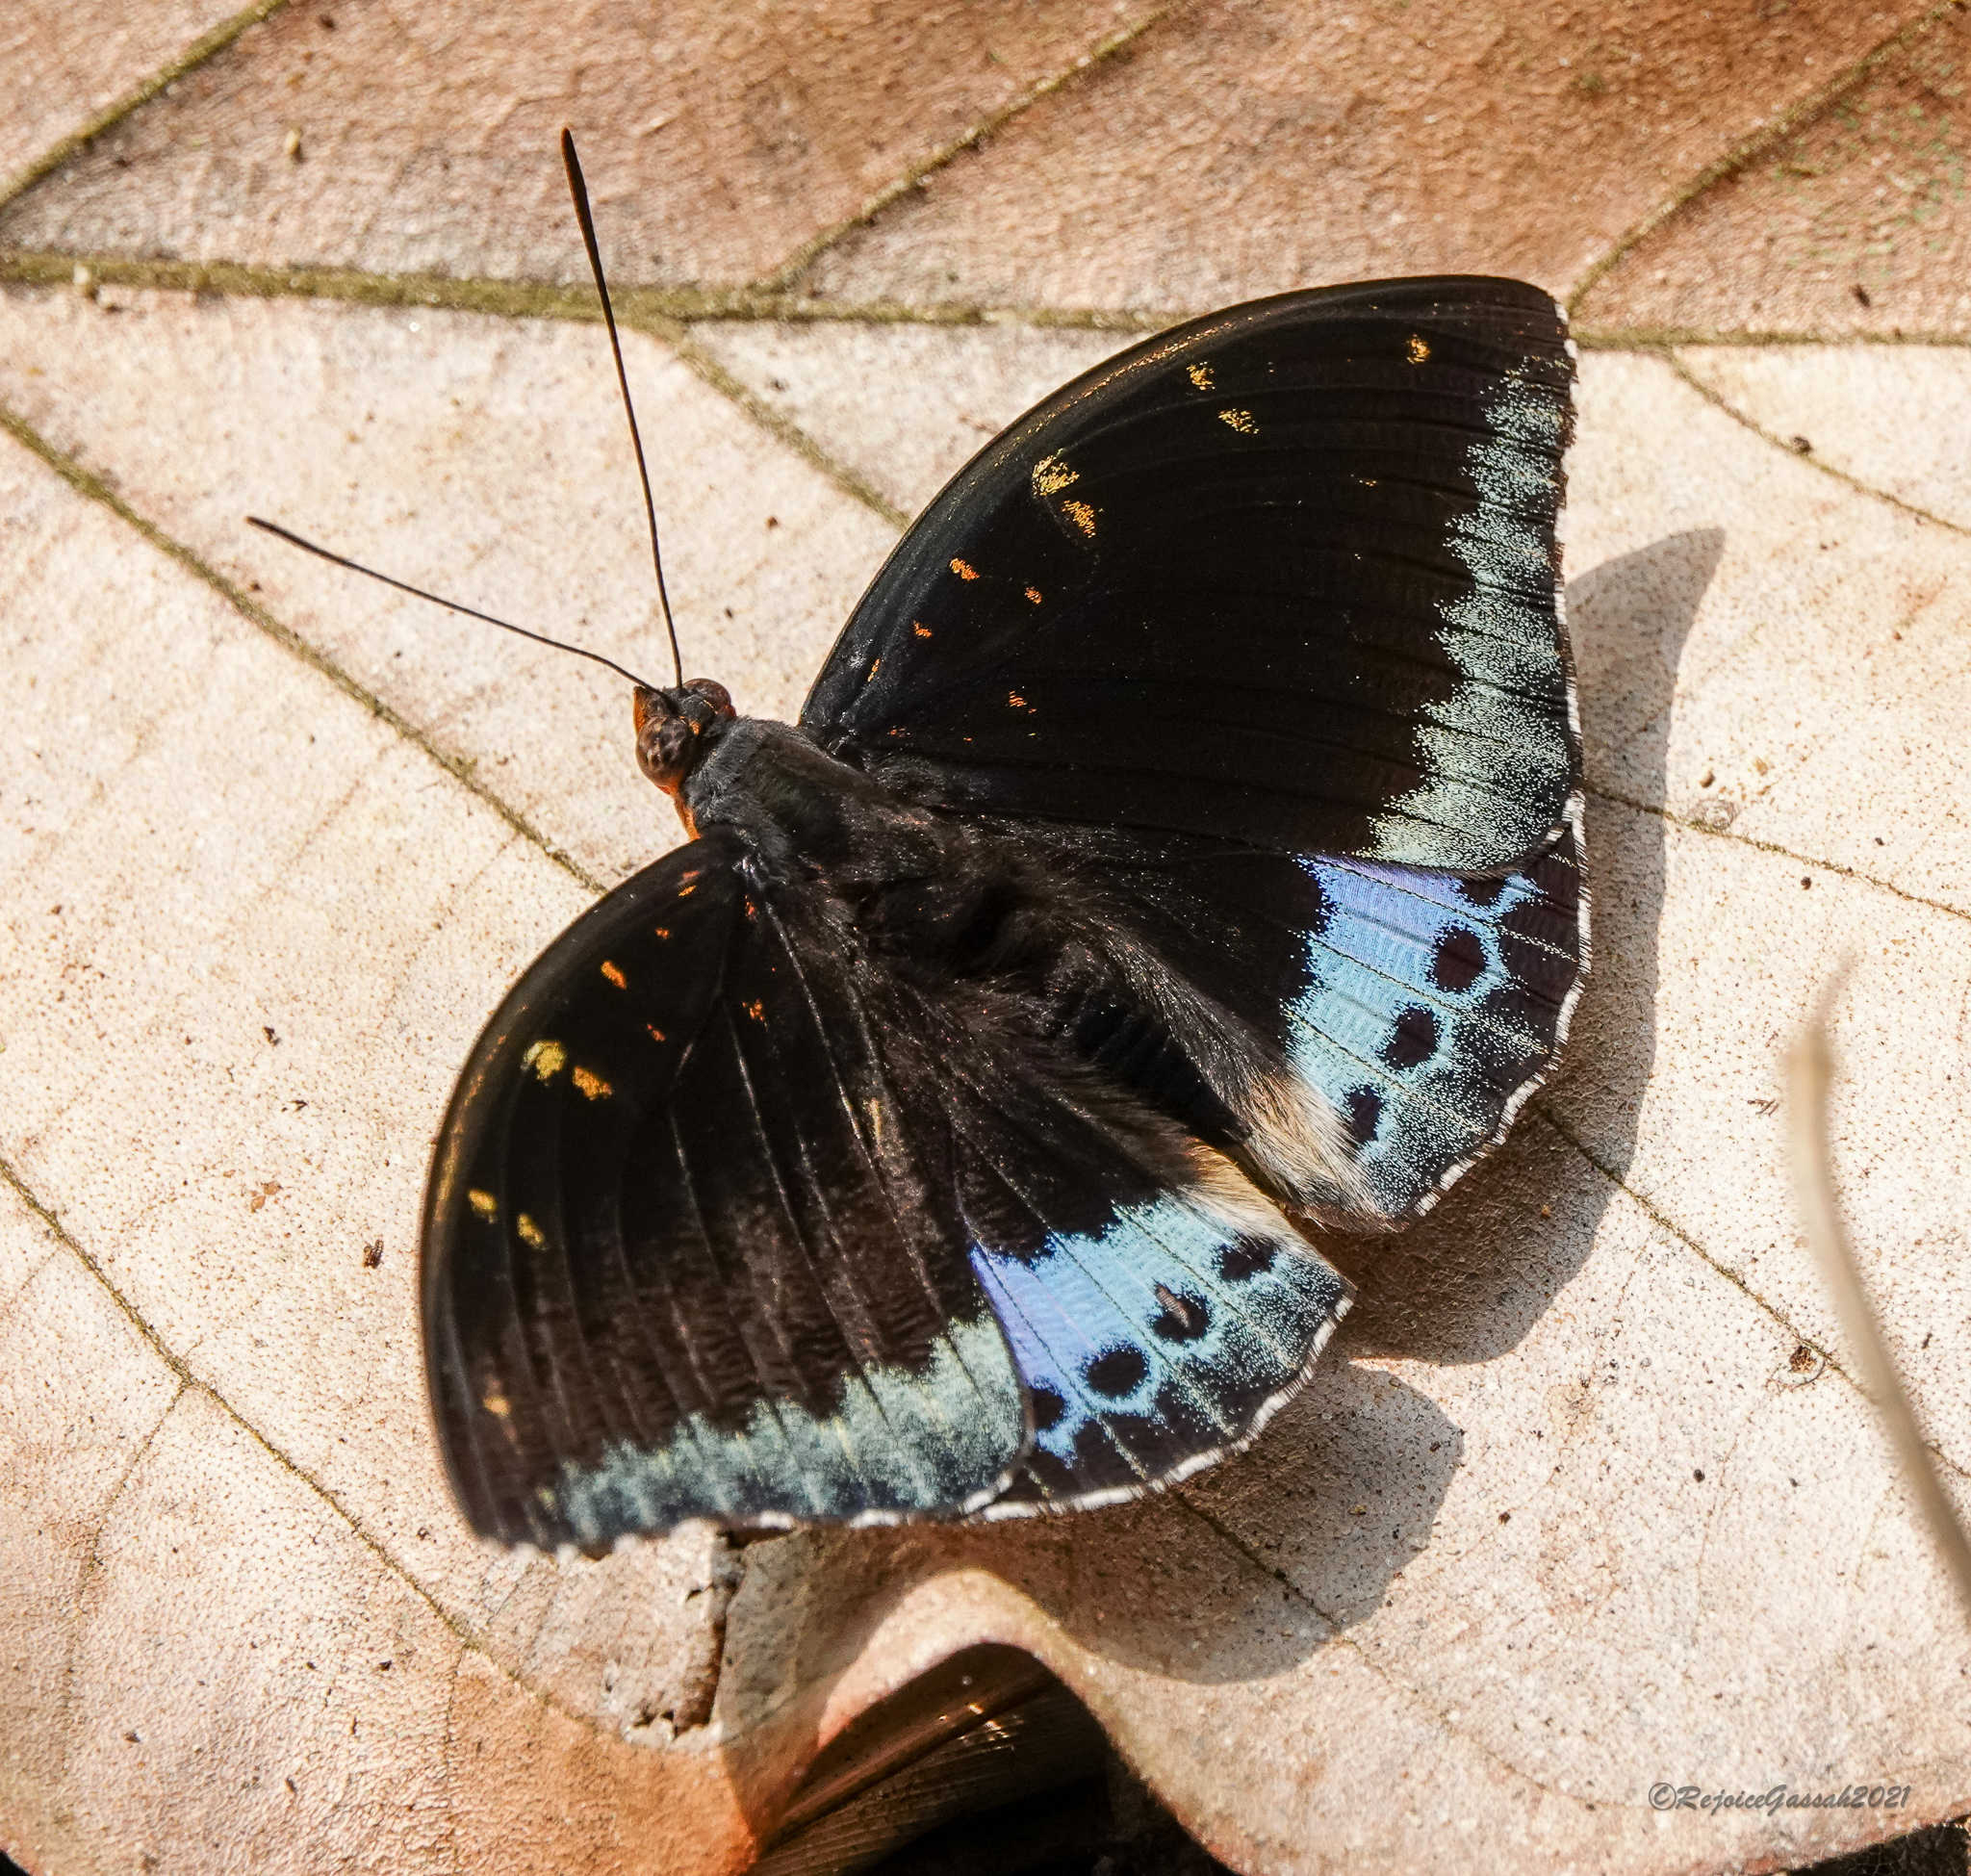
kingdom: Animalia
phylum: Arthropoda
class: Insecta
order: Lepidoptera
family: Nymphalidae
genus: Lexias
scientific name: Lexias dirtea
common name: Black-tipped archduke
